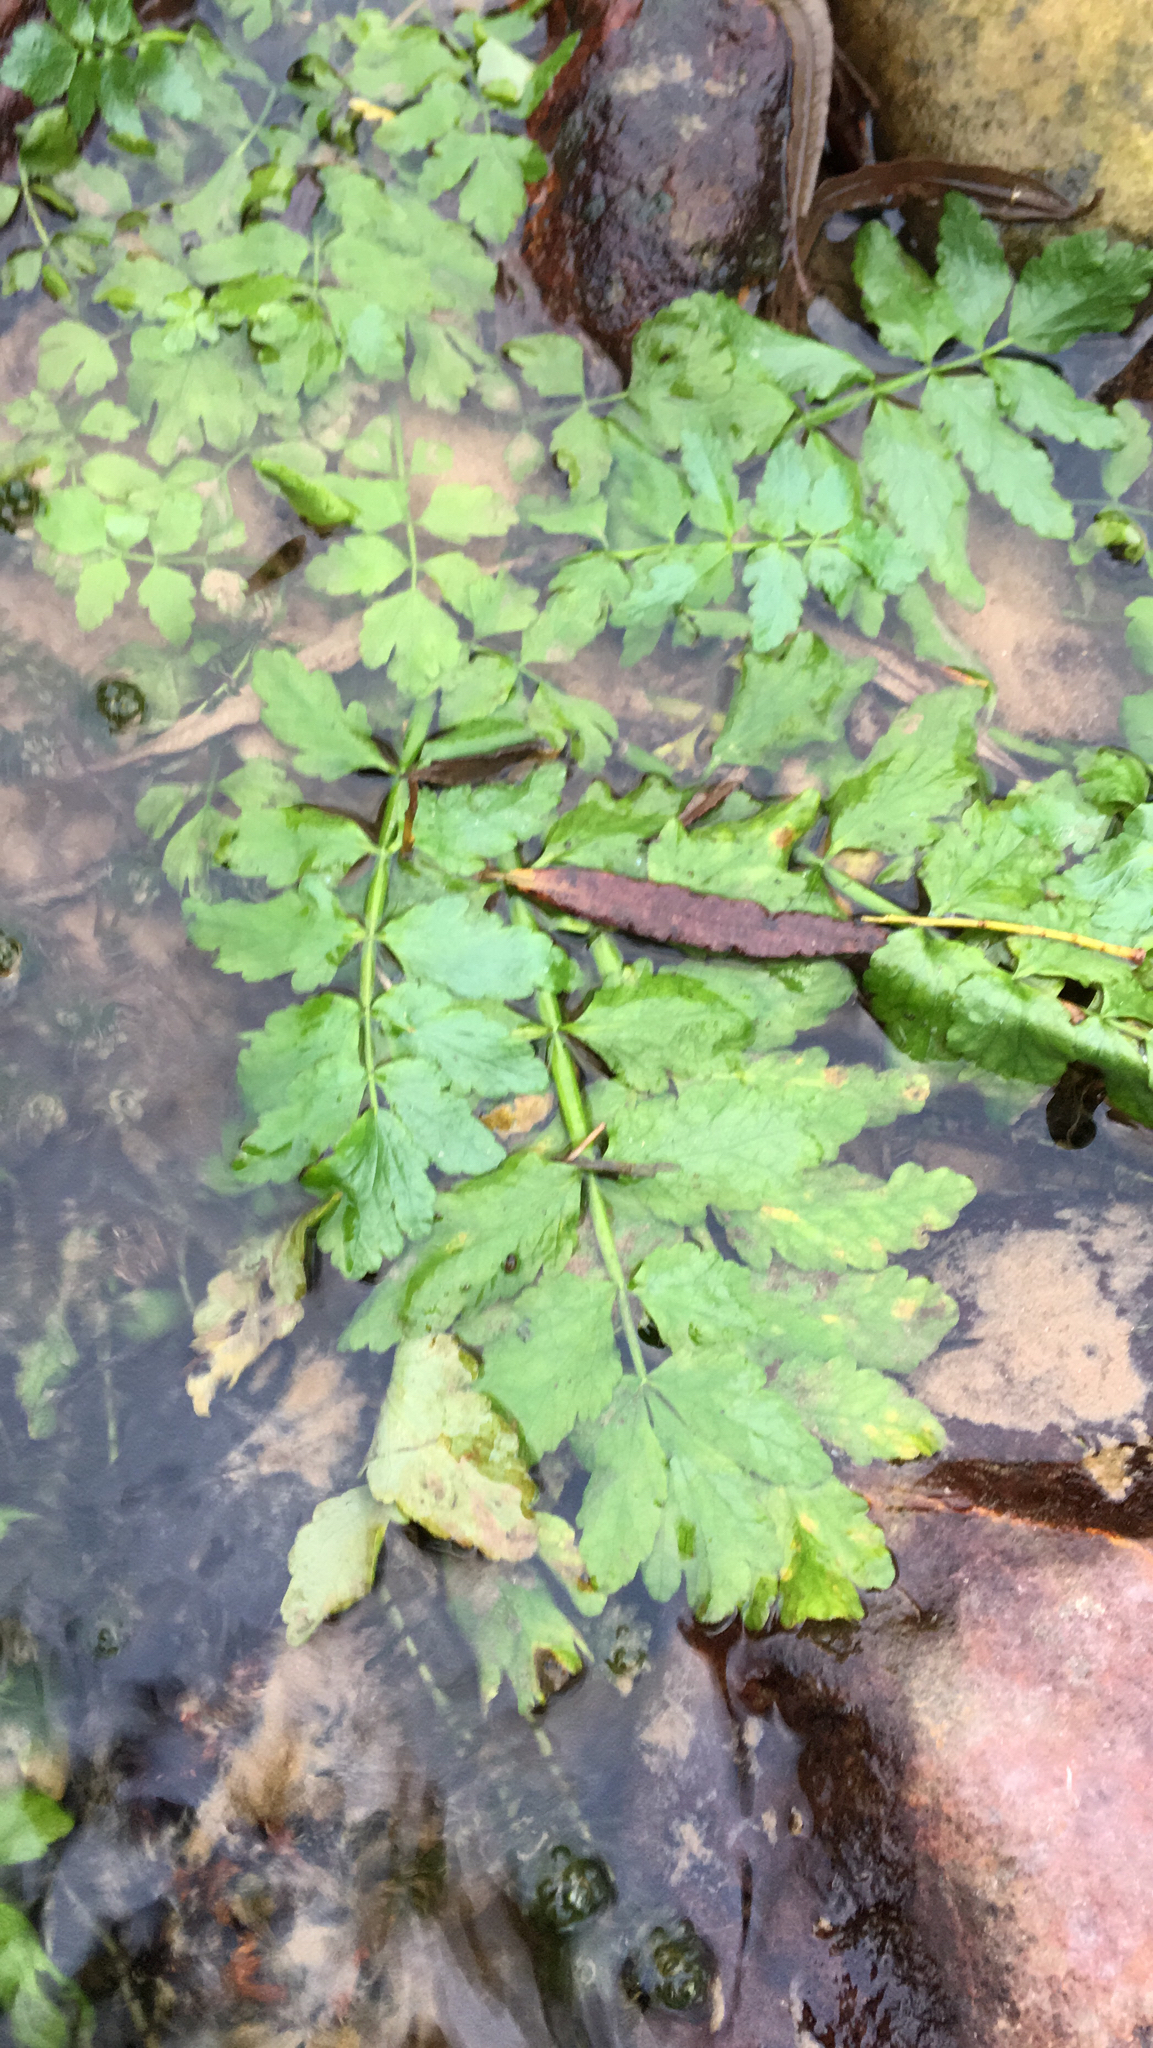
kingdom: Plantae
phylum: Tracheophyta
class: Magnoliopsida
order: Apiales
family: Apiaceae
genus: Berula
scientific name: Berula erecta
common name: Lesser water-parsnip
